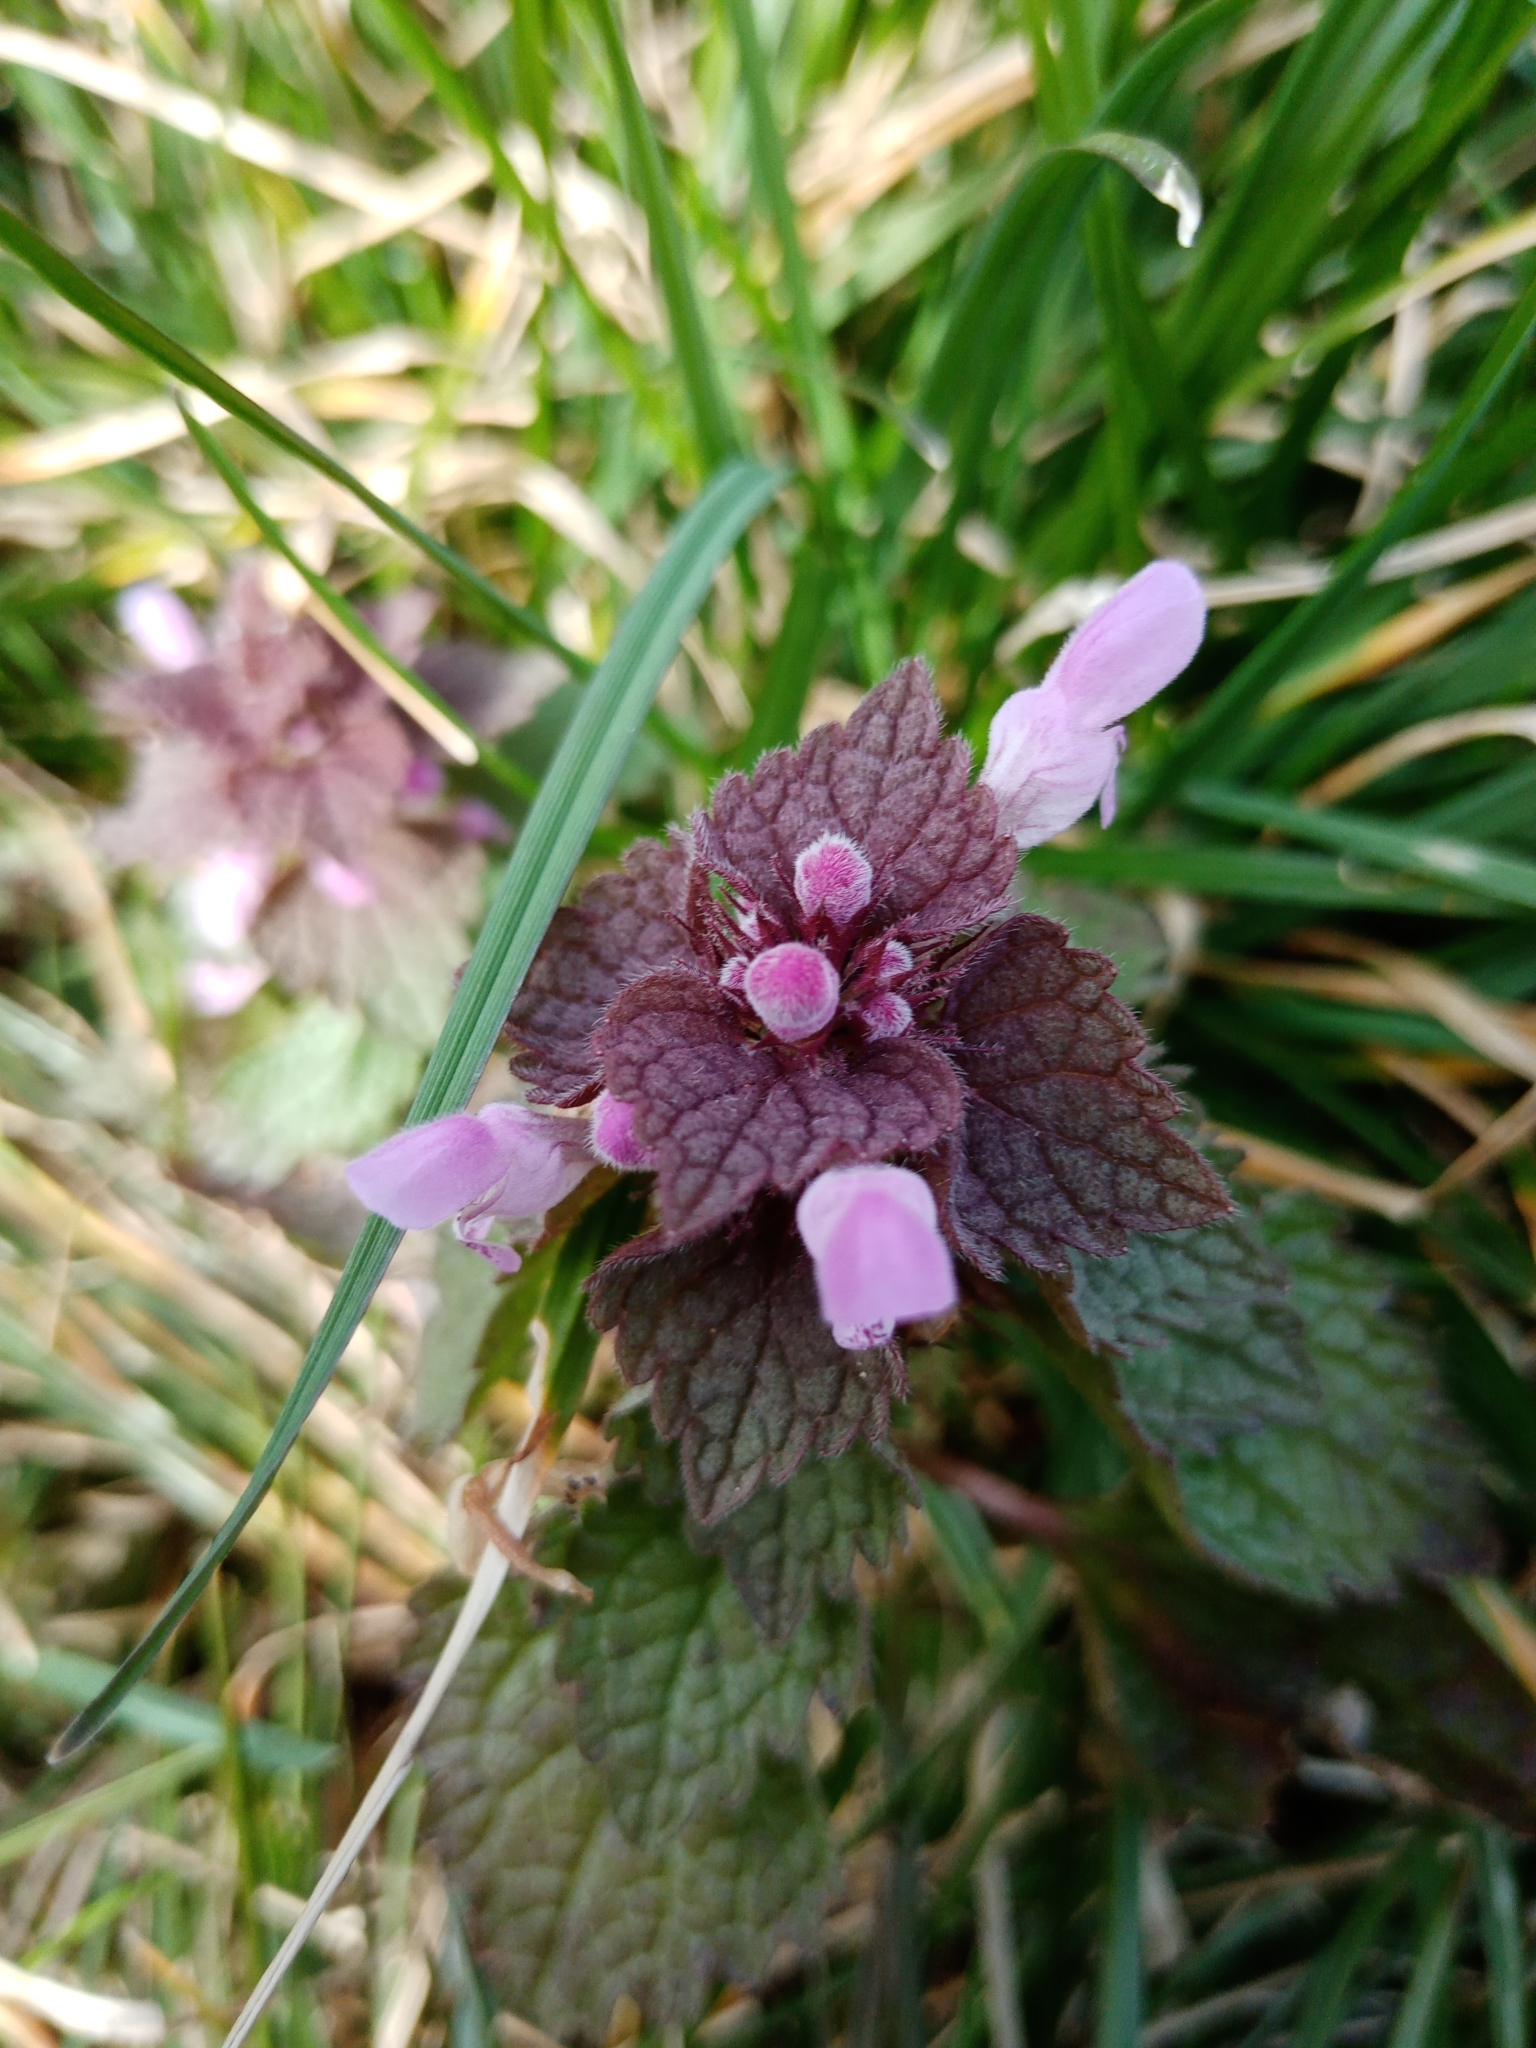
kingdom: Plantae
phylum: Tracheophyta
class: Magnoliopsida
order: Lamiales
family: Lamiaceae
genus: Lamium
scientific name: Lamium purpureum
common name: Red dead-nettle
